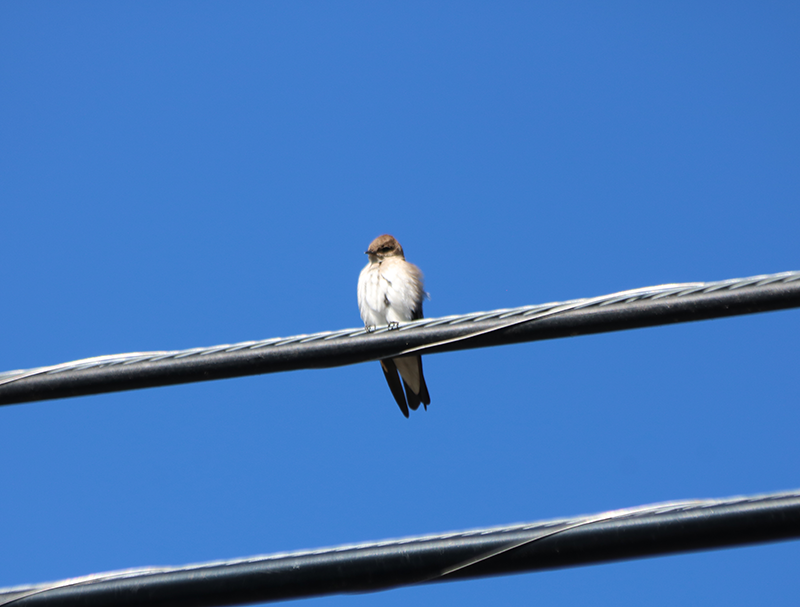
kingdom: Animalia
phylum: Chordata
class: Aves
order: Passeriformes
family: Hirundinidae
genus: Stelgidopteryx
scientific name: Stelgidopteryx serripennis
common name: Northern rough-winged swallow
